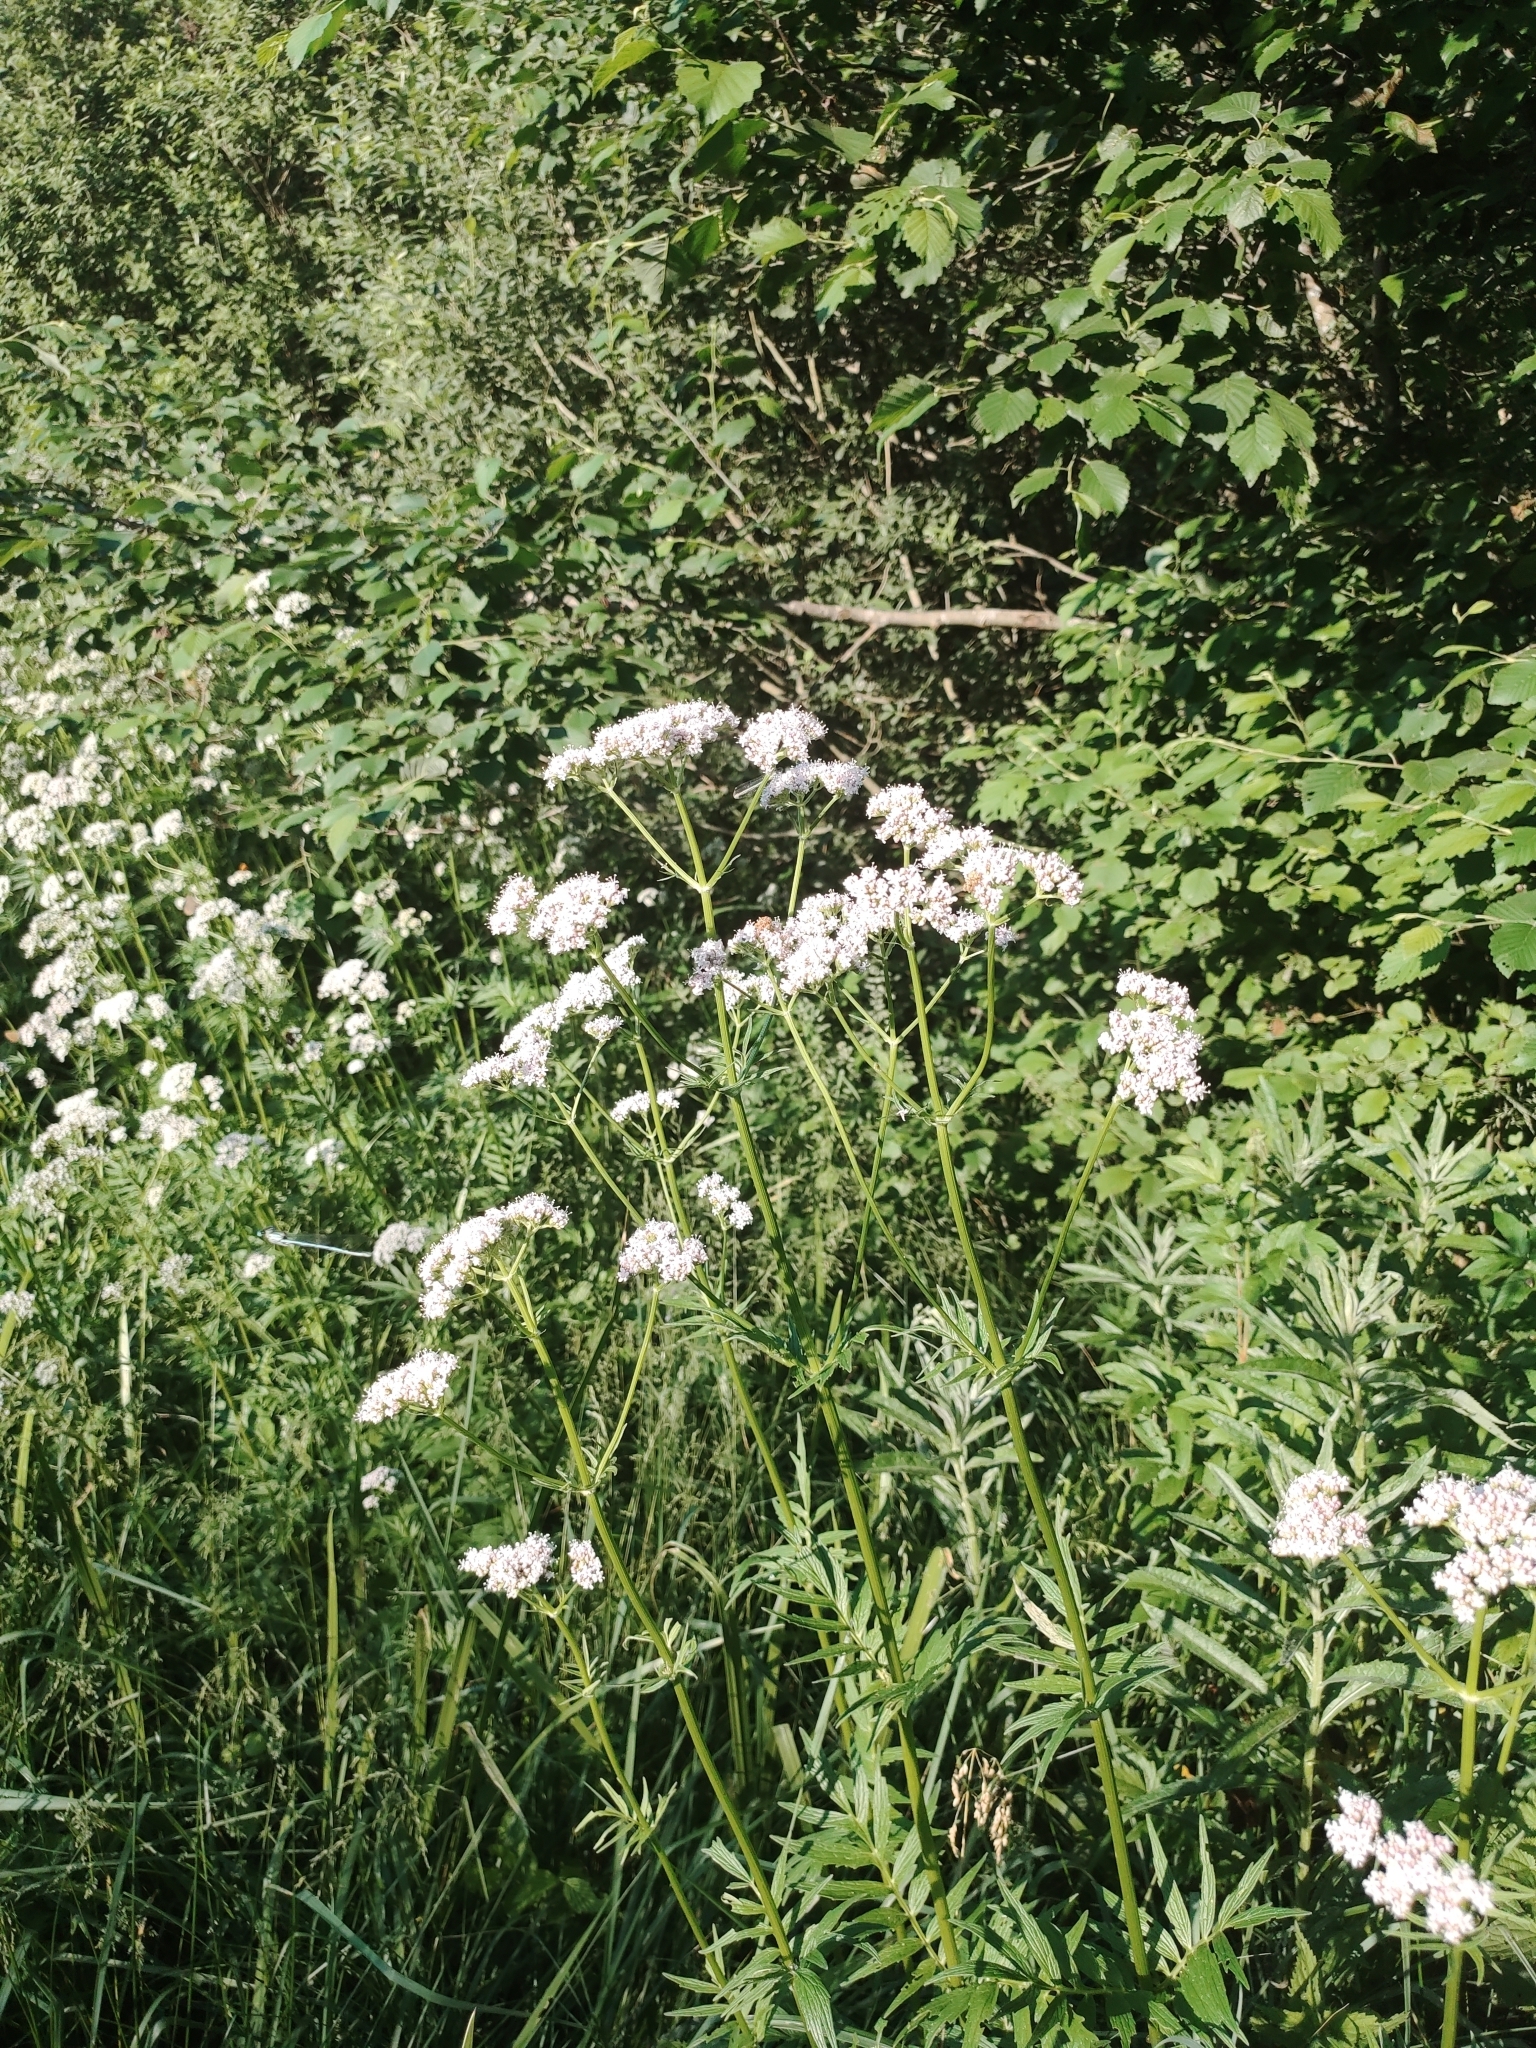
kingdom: Plantae
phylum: Tracheophyta
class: Magnoliopsida
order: Dipsacales
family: Caprifoliaceae
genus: Valeriana
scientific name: Valeriana officinalis
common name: Common valerian
